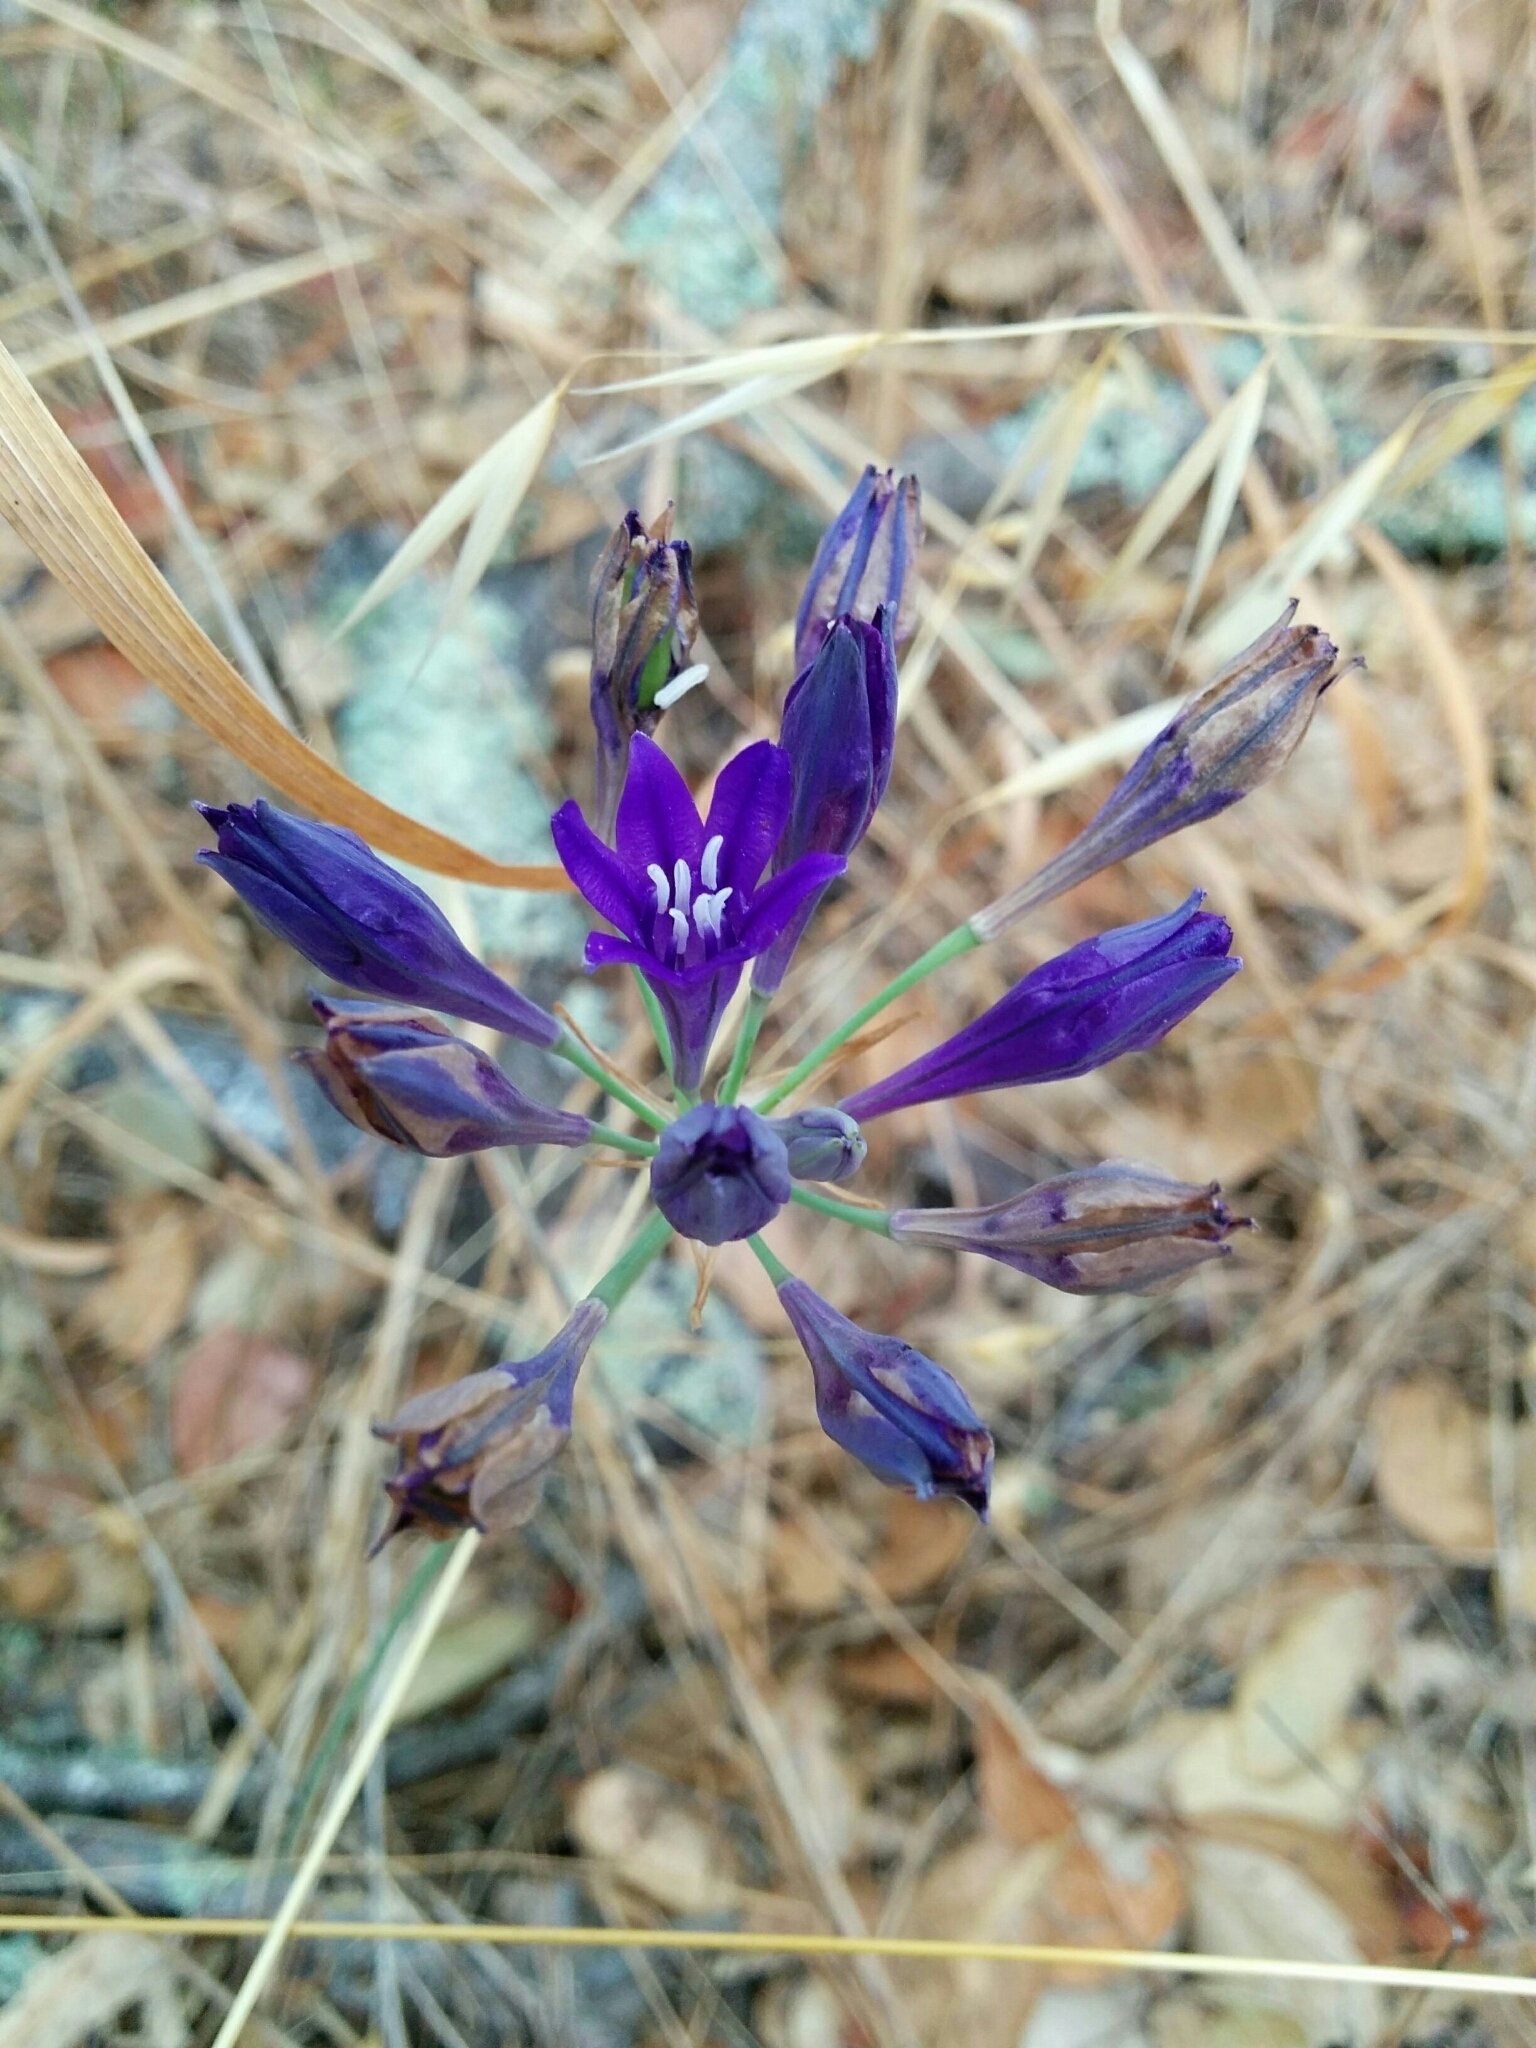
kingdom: Plantae
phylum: Tracheophyta
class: Liliopsida
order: Asparagales
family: Asparagaceae
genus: Triteleia
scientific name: Triteleia laxa
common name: Triplet-lily
